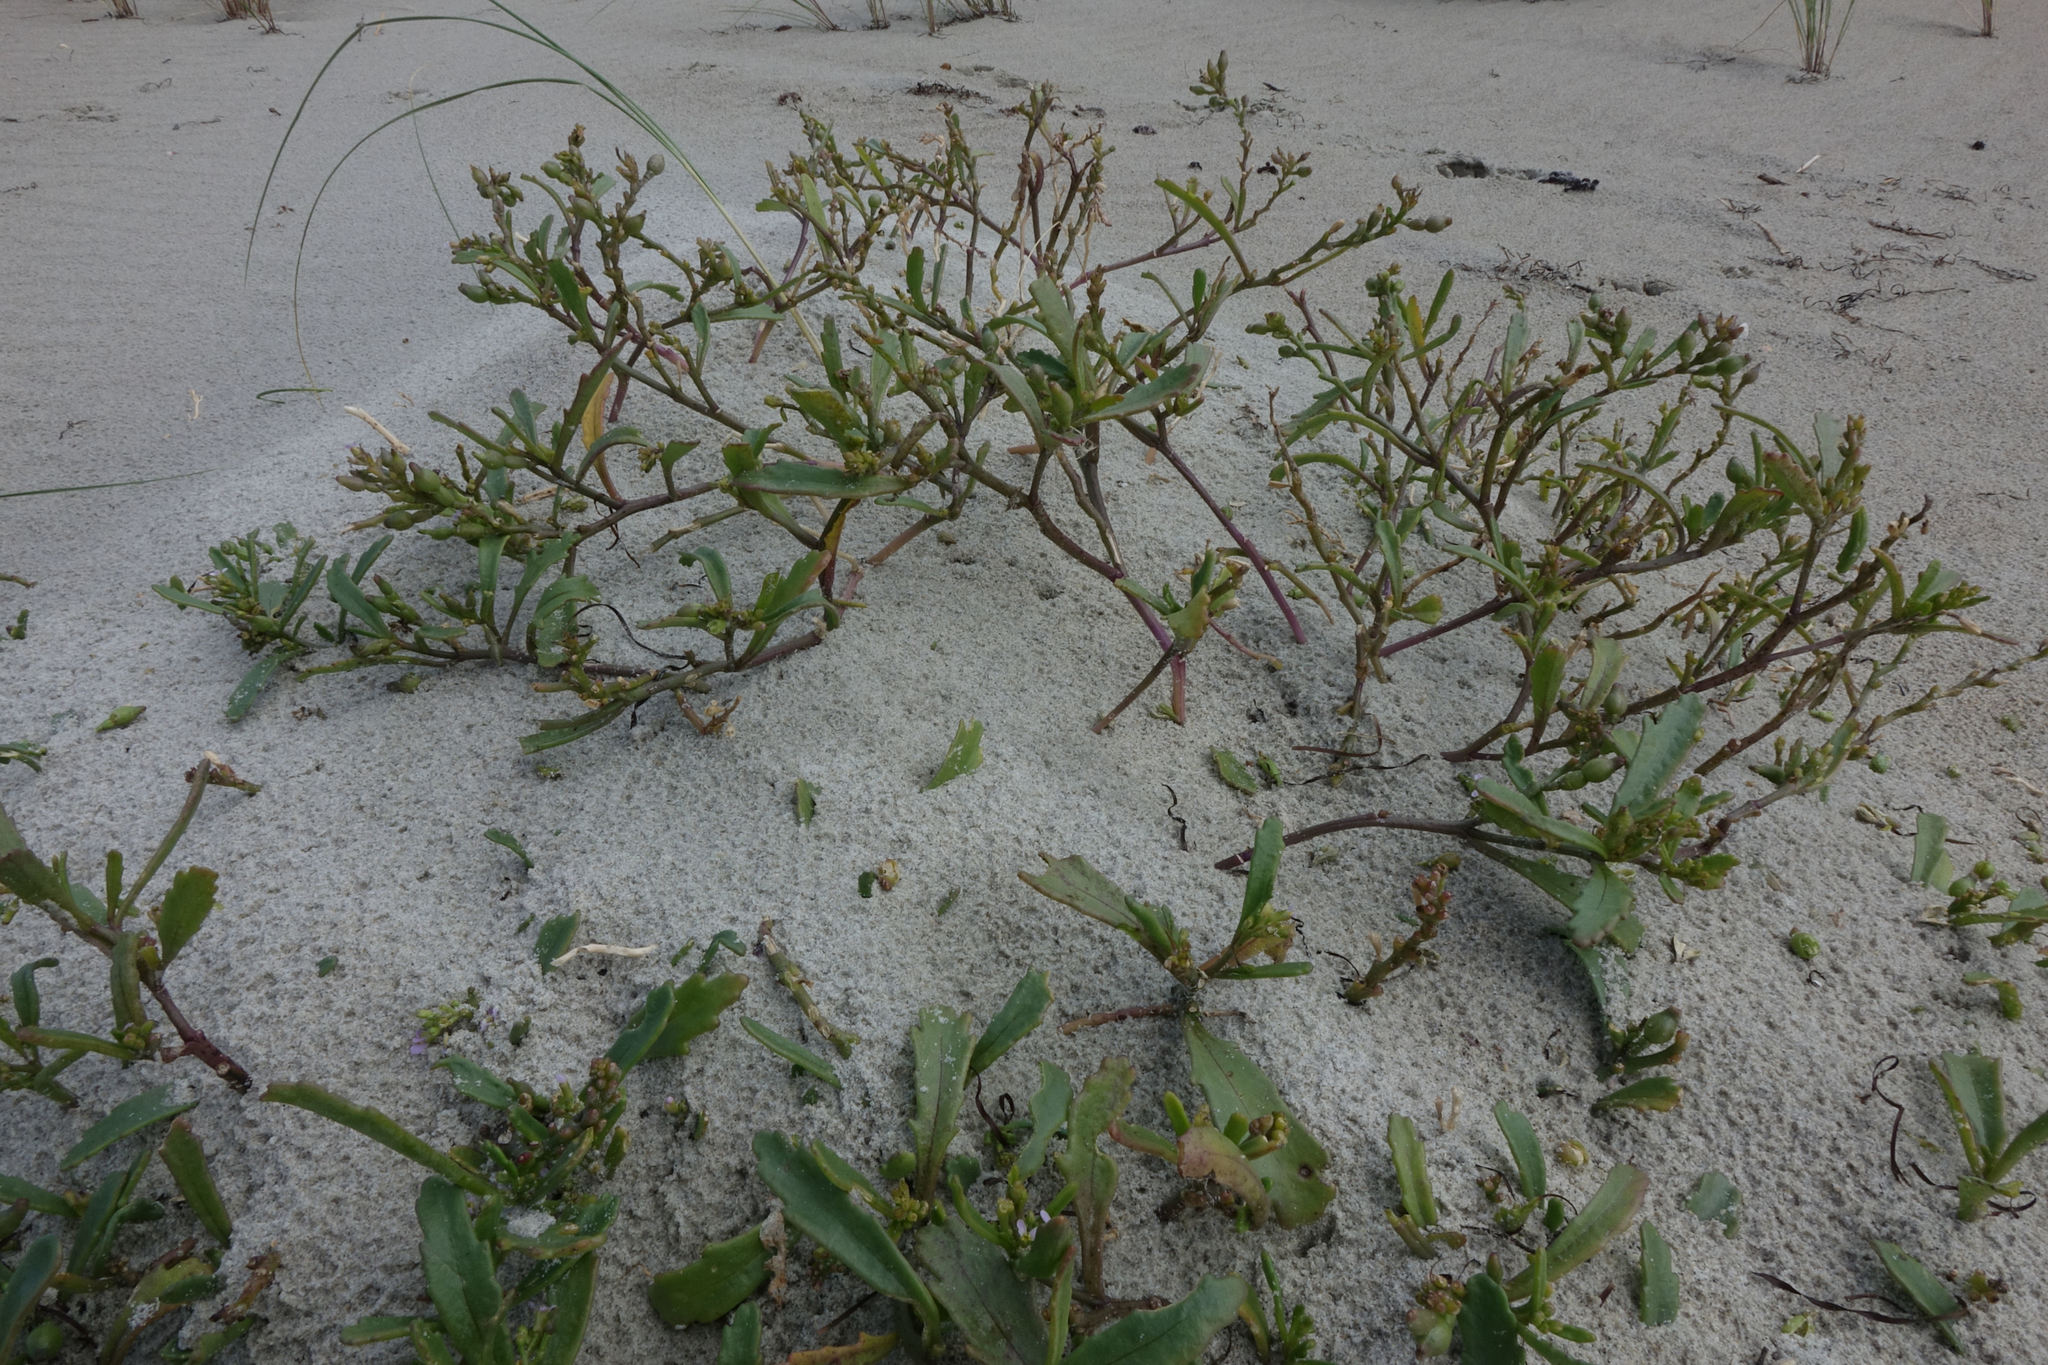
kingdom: Plantae
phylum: Tracheophyta
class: Magnoliopsida
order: Brassicales
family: Brassicaceae
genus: Cakile
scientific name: Cakile edentula
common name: American sea rocket
